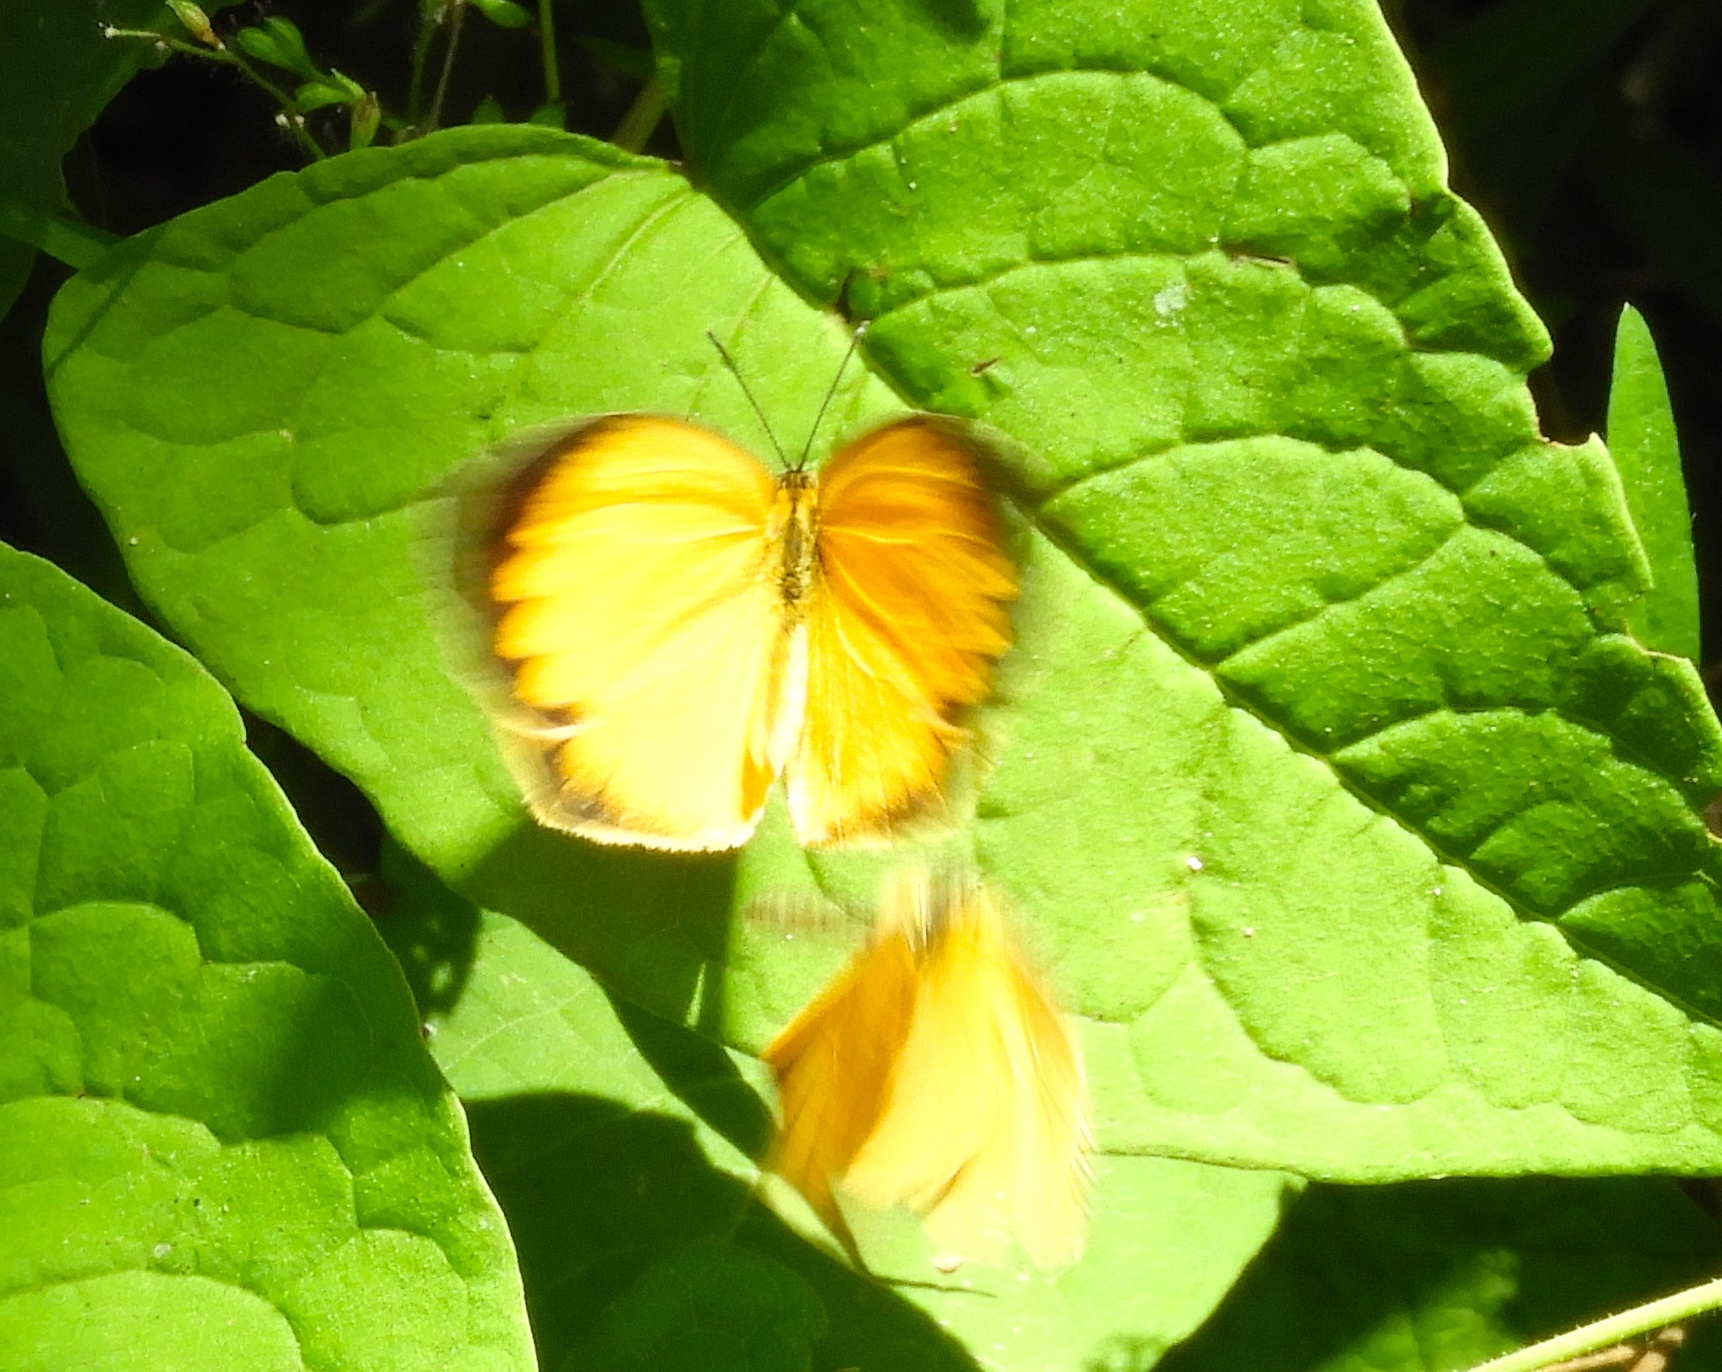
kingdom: Animalia
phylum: Arthropoda
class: Insecta
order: Lepidoptera
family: Pieridae
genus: Pyrisitia
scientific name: Pyrisitia proterpia
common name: Tailed orange
